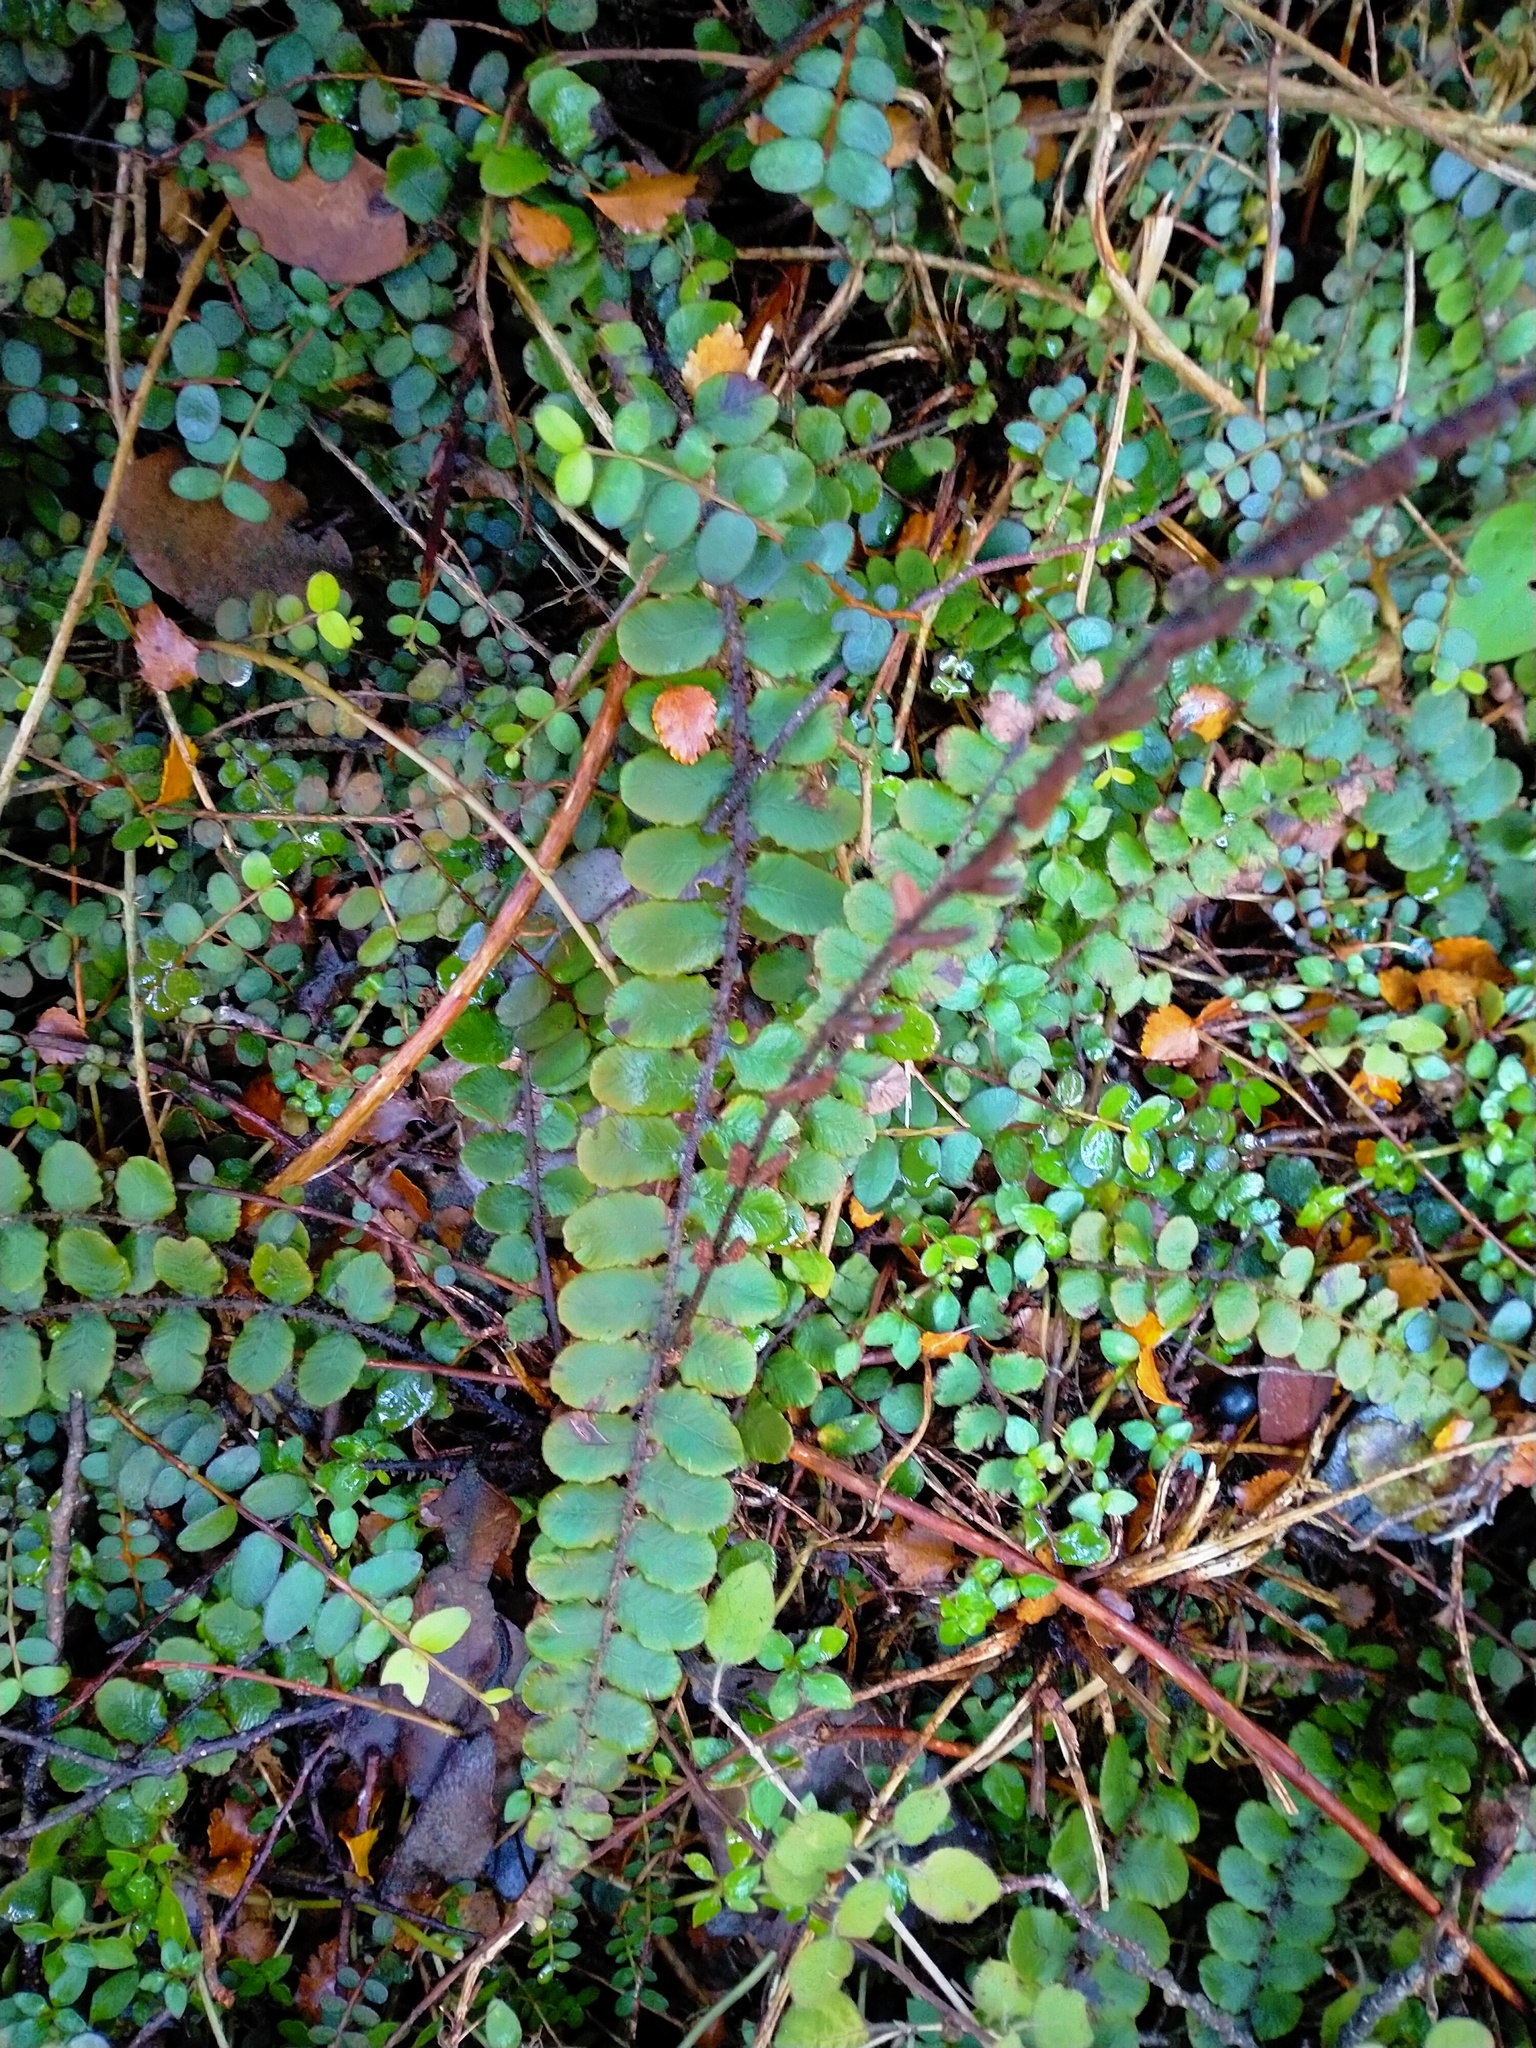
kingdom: Plantae
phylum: Tracheophyta
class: Polypodiopsida
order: Polypodiales
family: Blechnaceae
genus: Cranfillia
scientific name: Cranfillia fluviatilis
